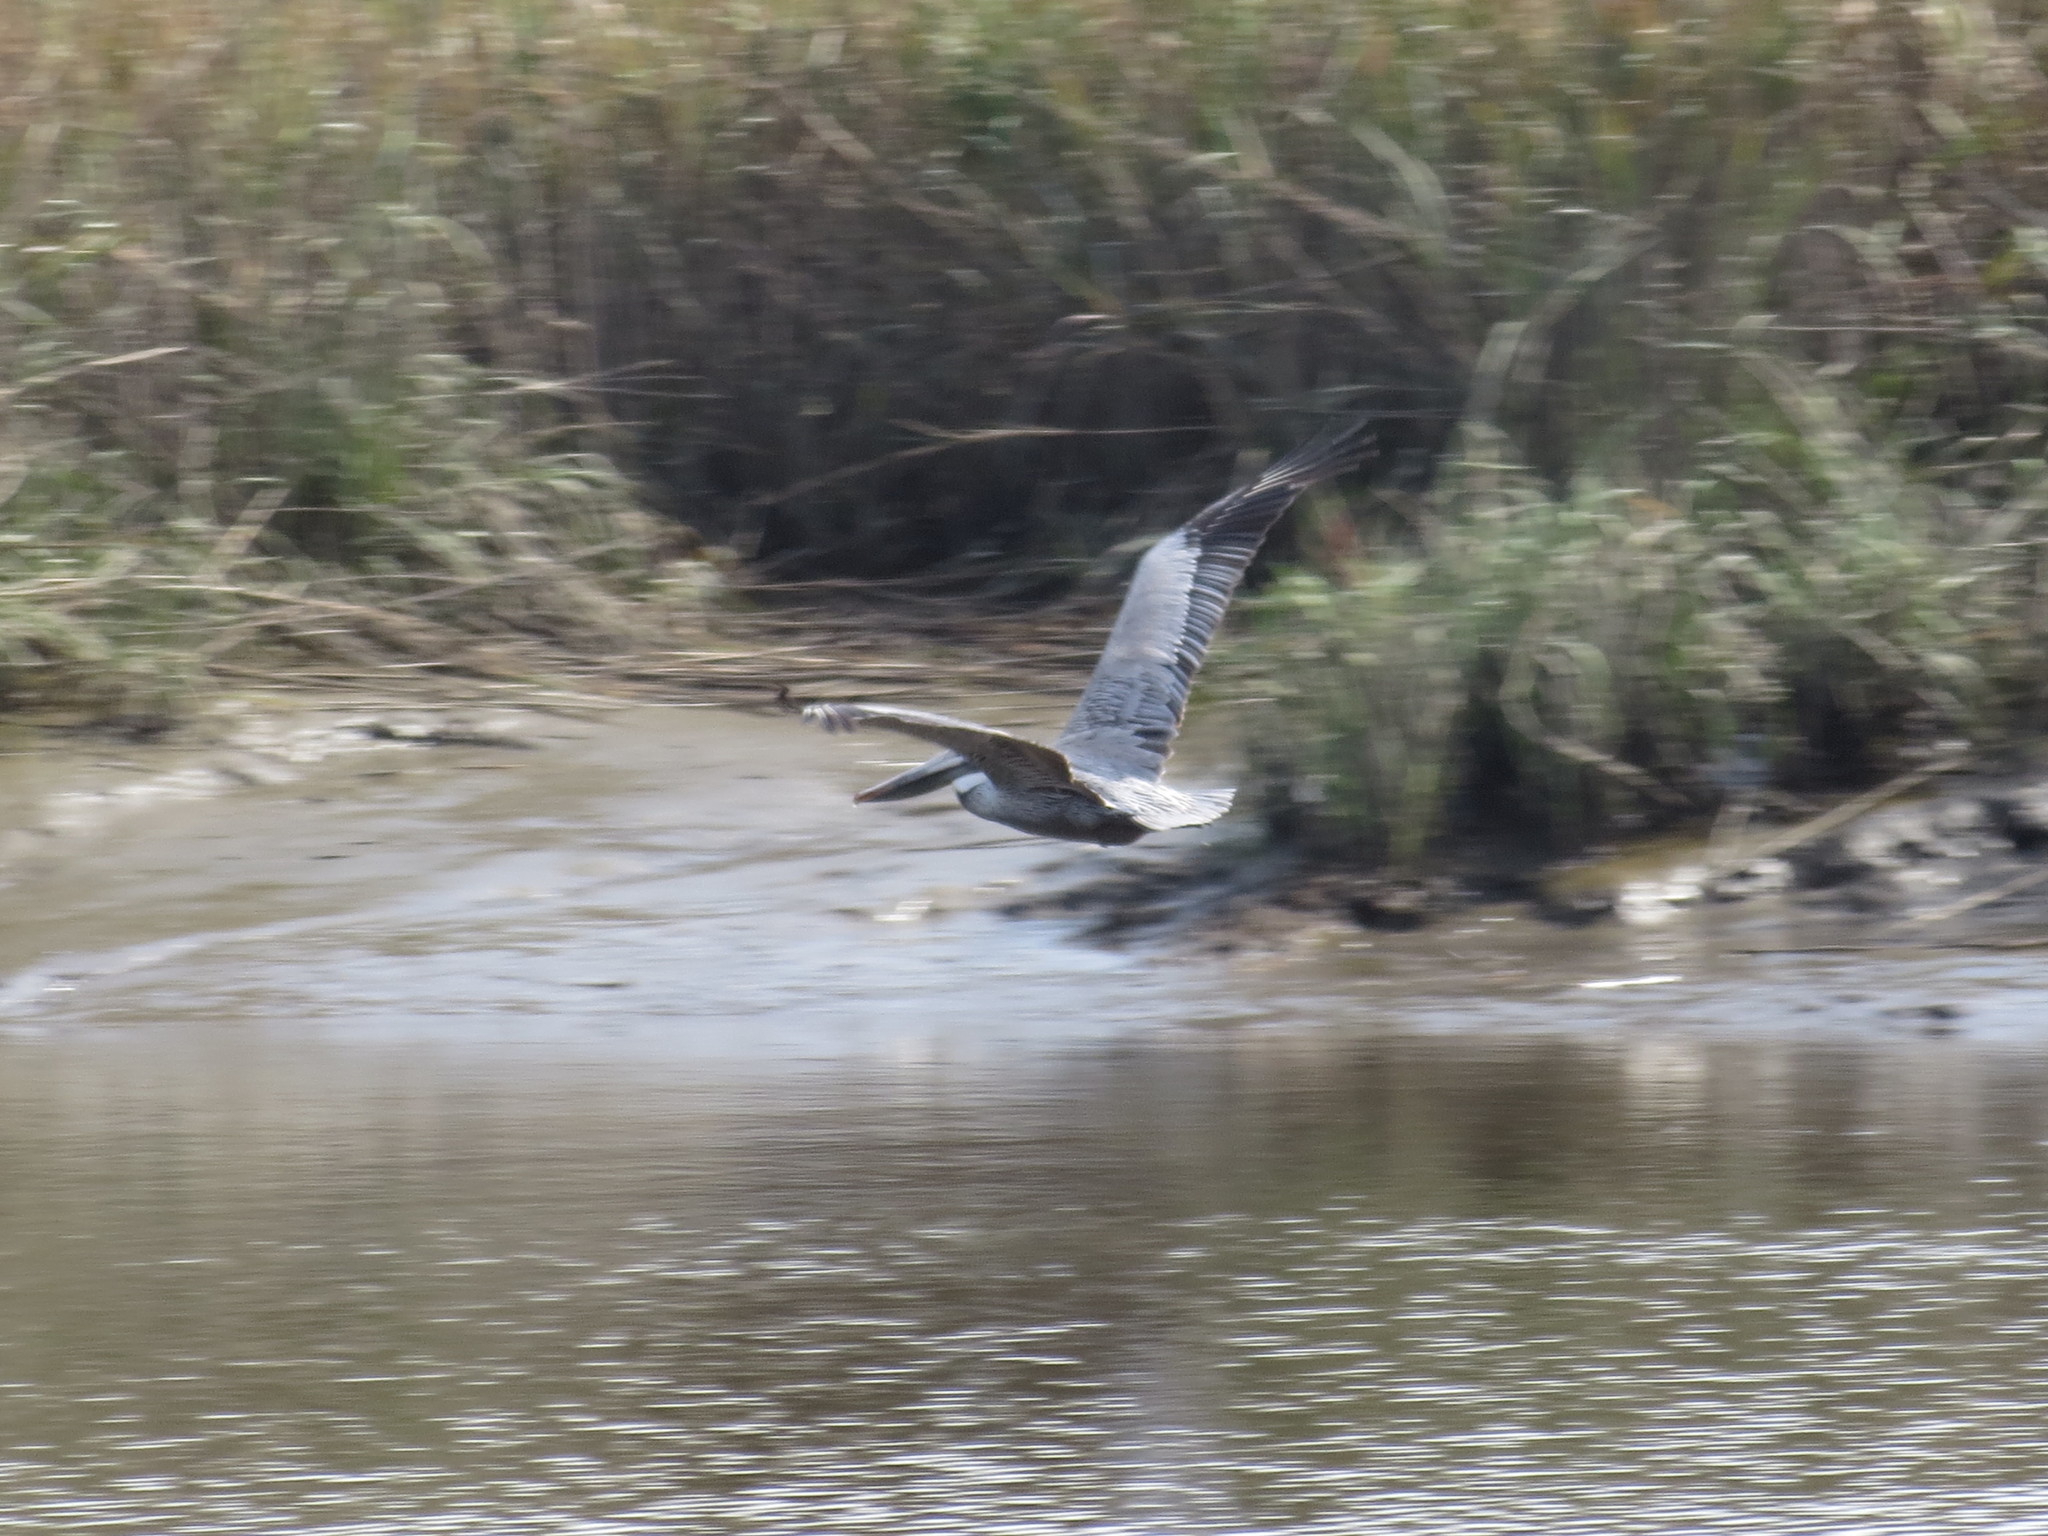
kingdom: Animalia
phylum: Chordata
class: Aves
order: Pelecaniformes
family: Pelecanidae
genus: Pelecanus
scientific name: Pelecanus occidentalis
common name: Brown pelican
